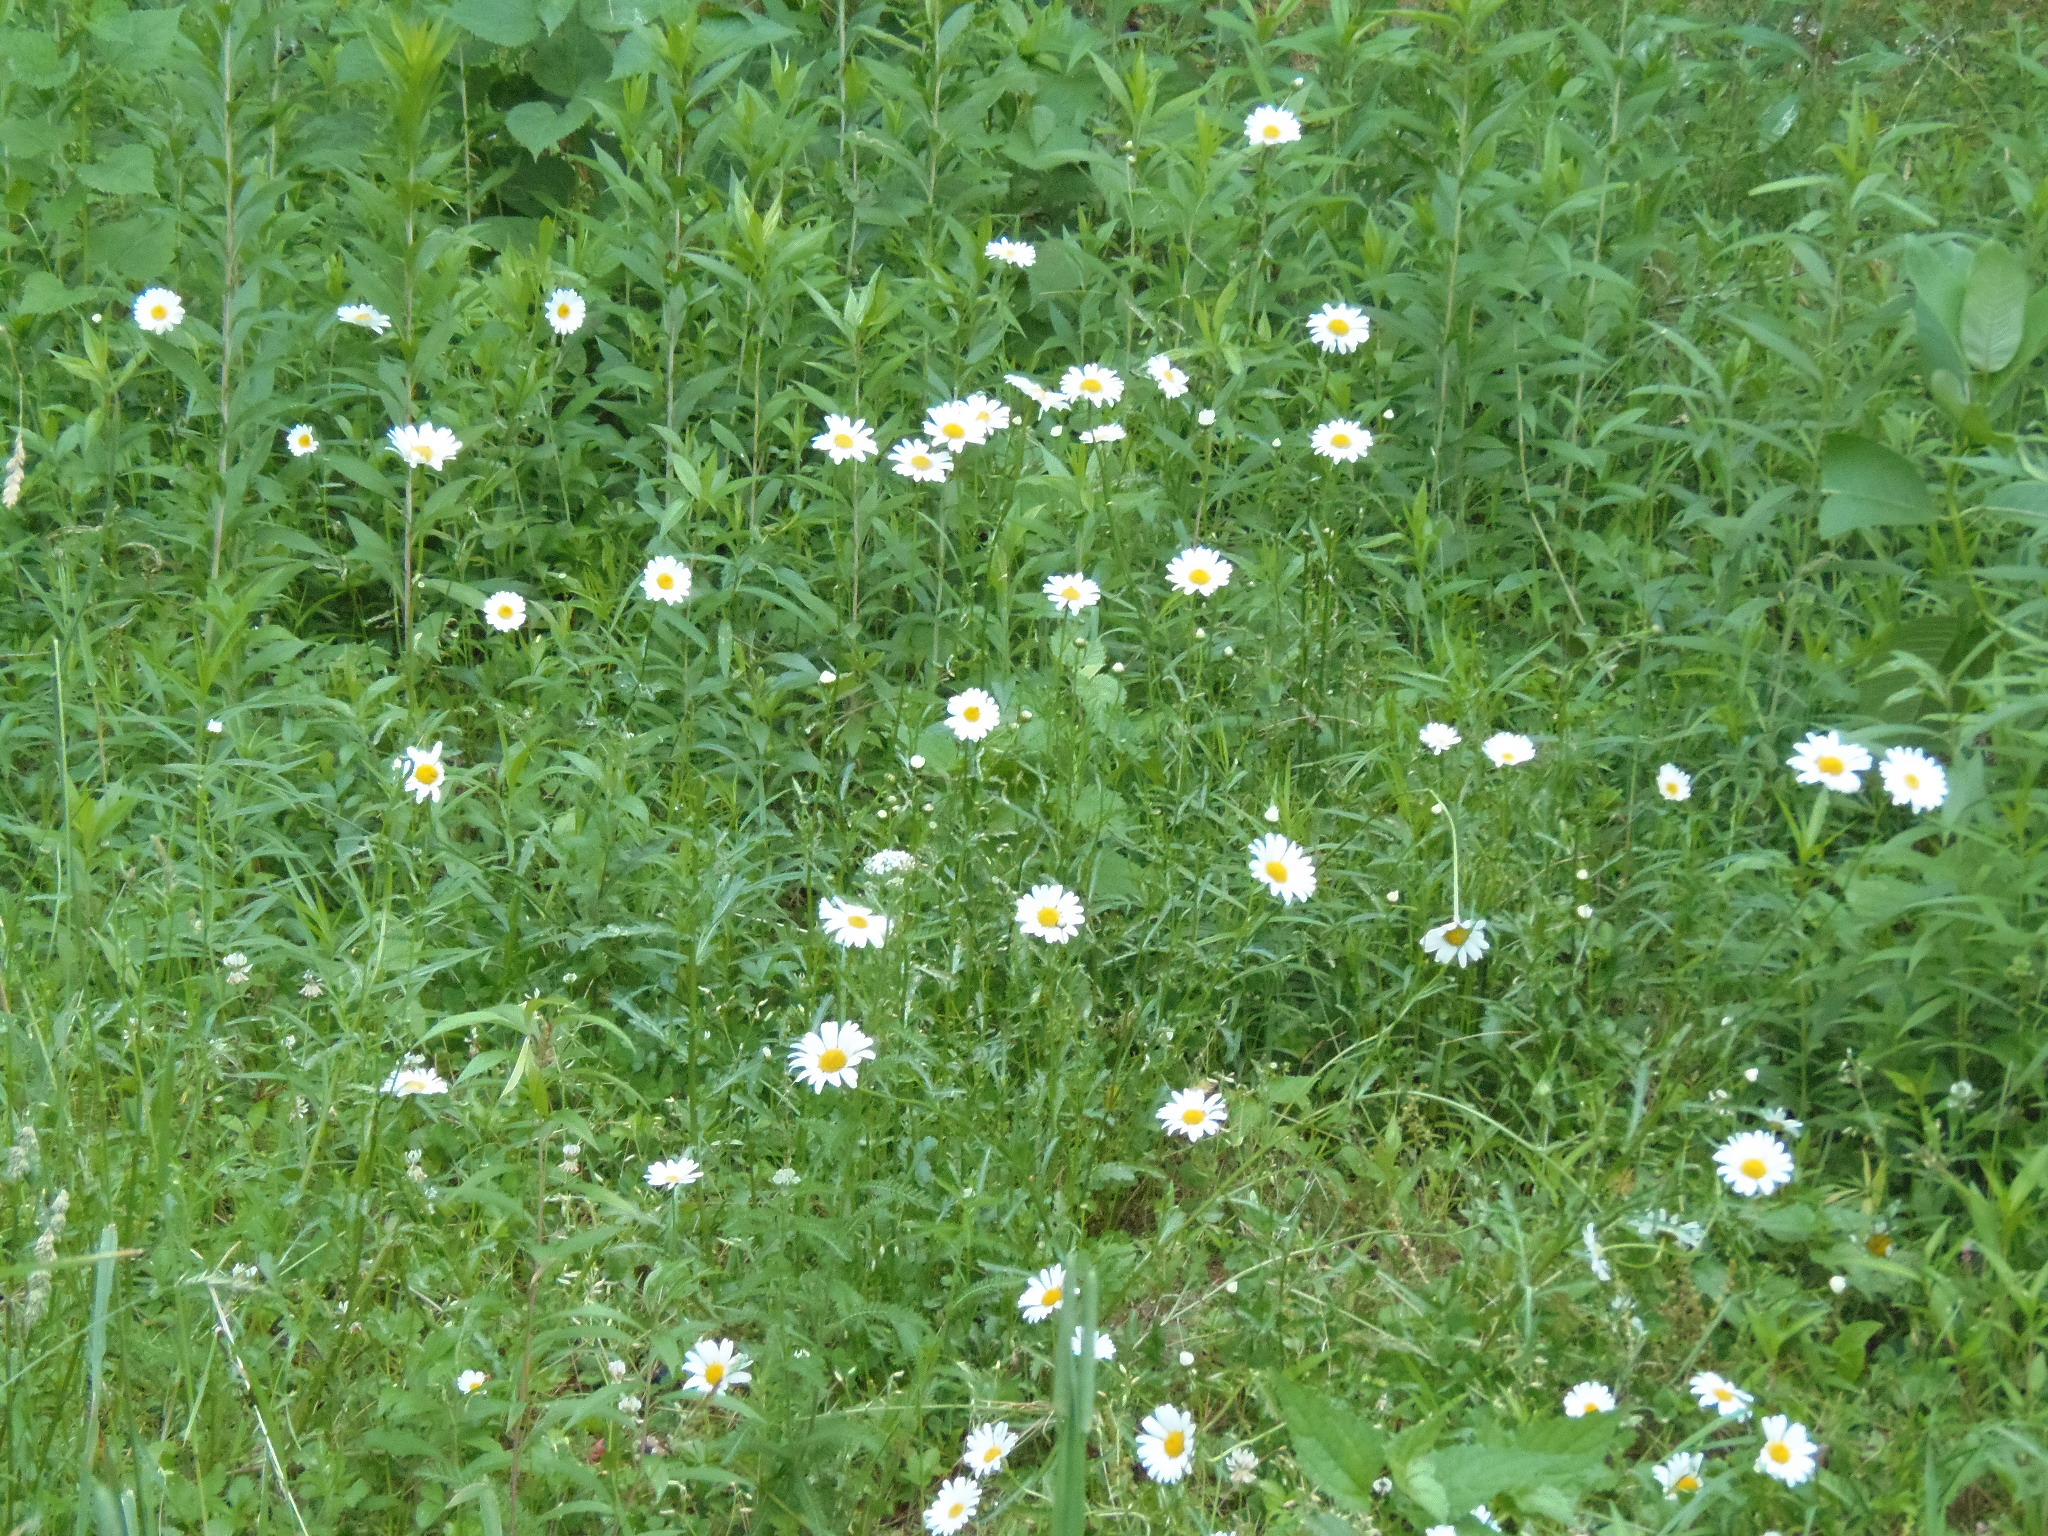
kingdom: Plantae
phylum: Tracheophyta
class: Magnoliopsida
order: Asterales
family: Asteraceae
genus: Leucanthemum
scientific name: Leucanthemum vulgare
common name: Oxeye daisy
